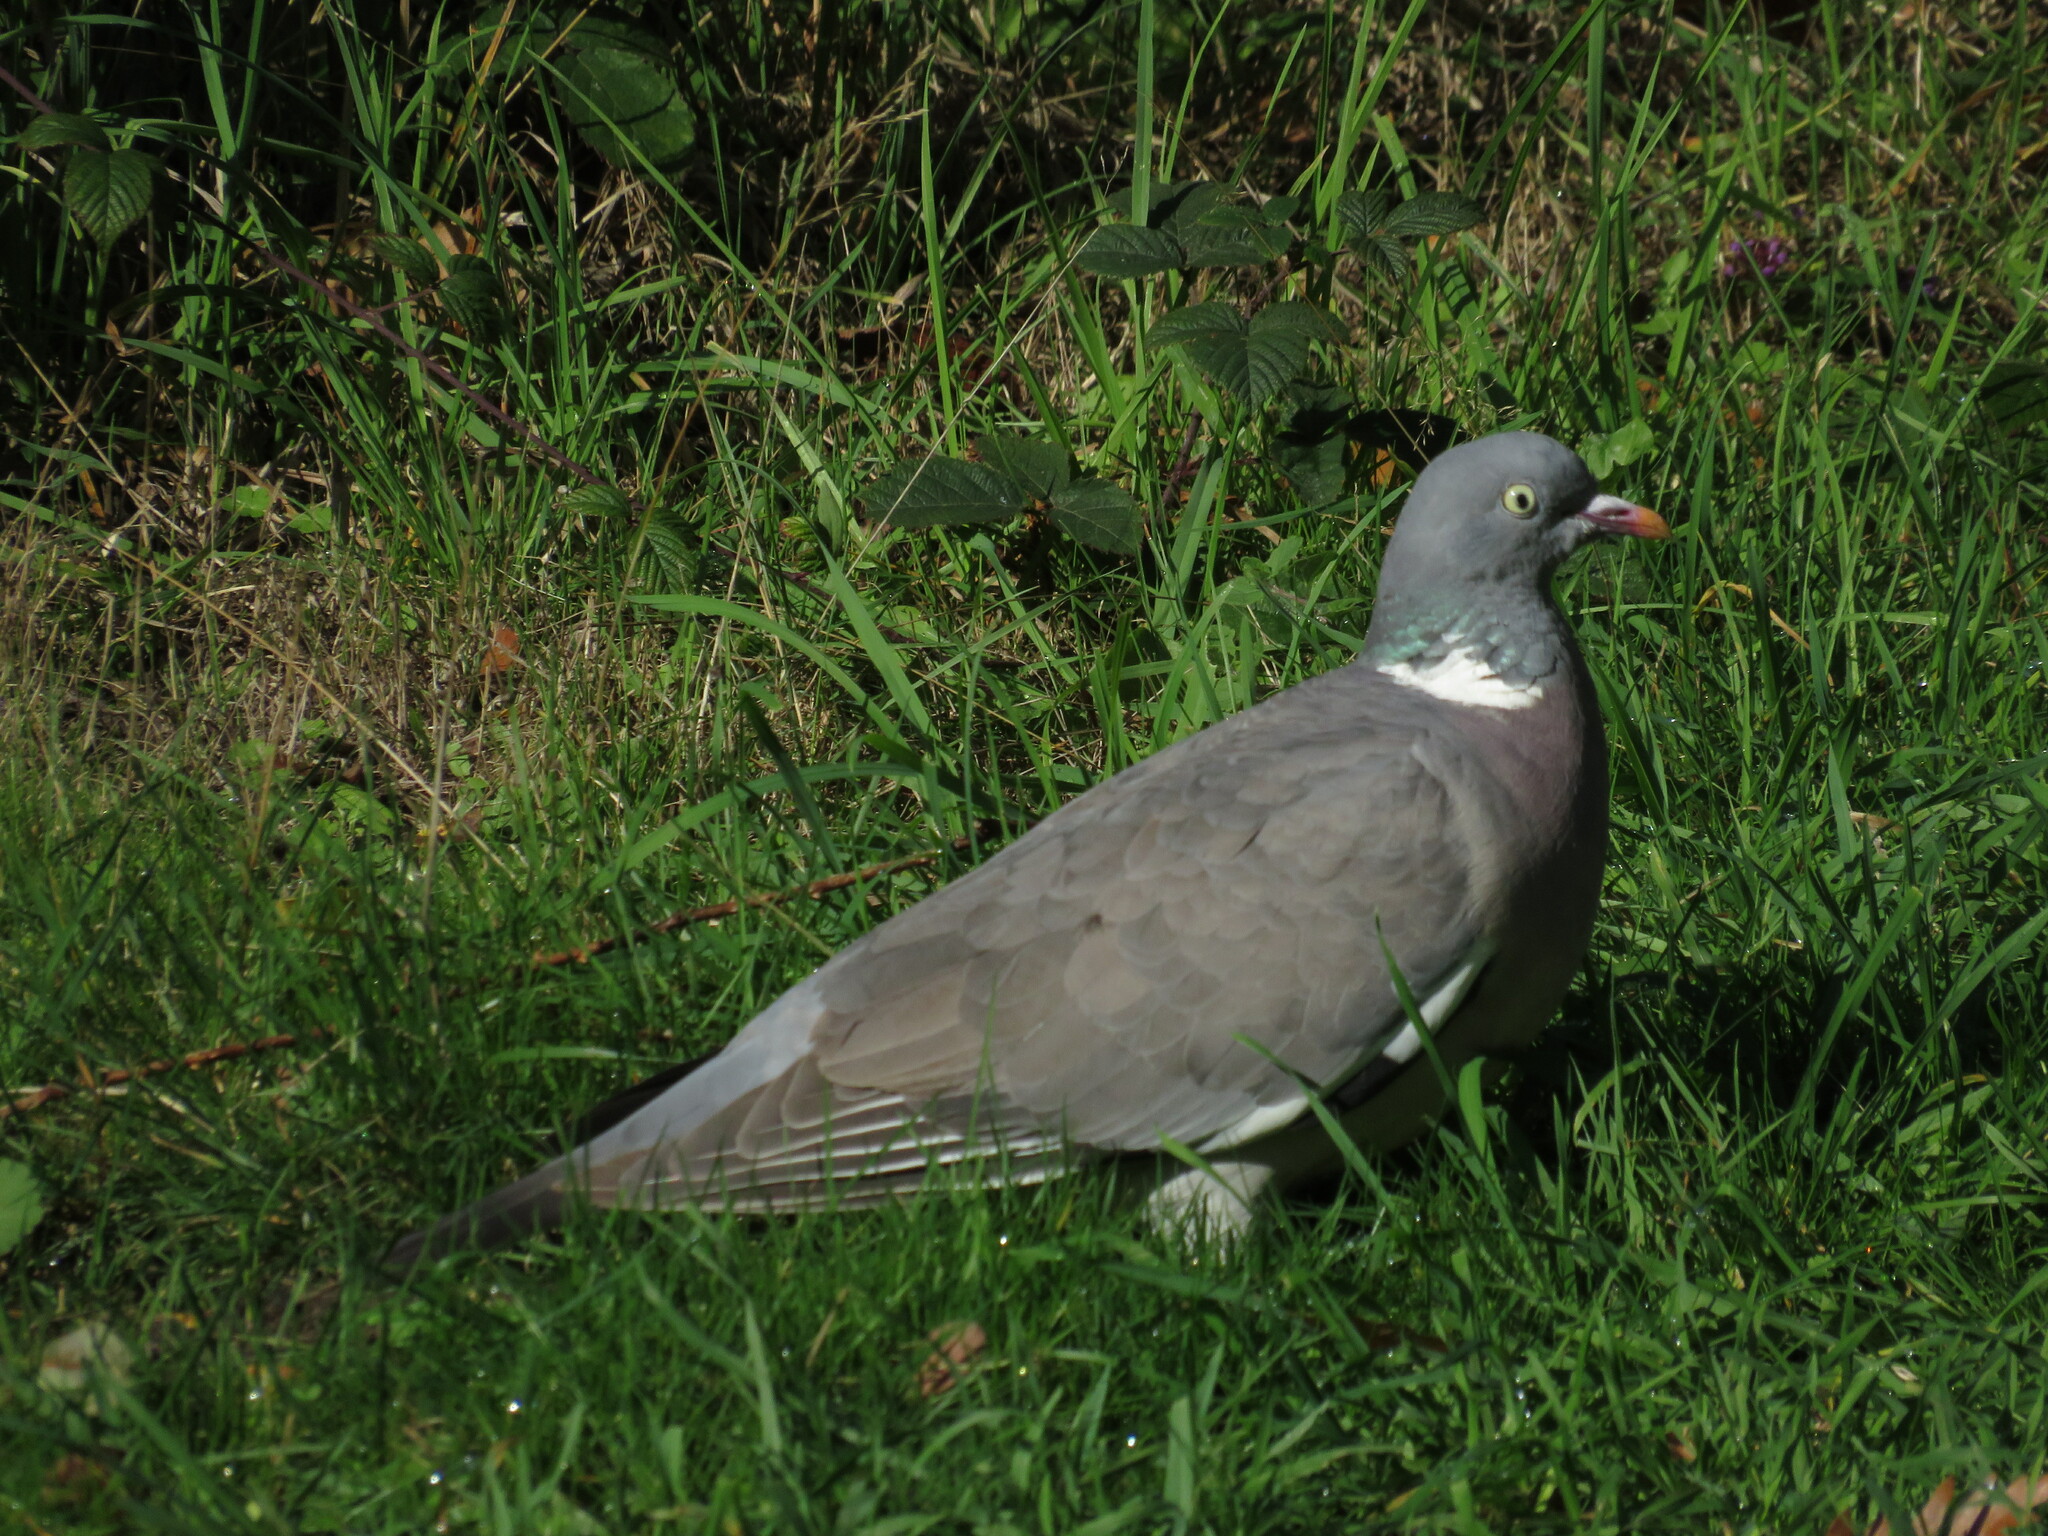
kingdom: Animalia
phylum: Chordata
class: Aves
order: Columbiformes
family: Columbidae
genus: Columba
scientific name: Columba palumbus
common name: Common wood pigeon
